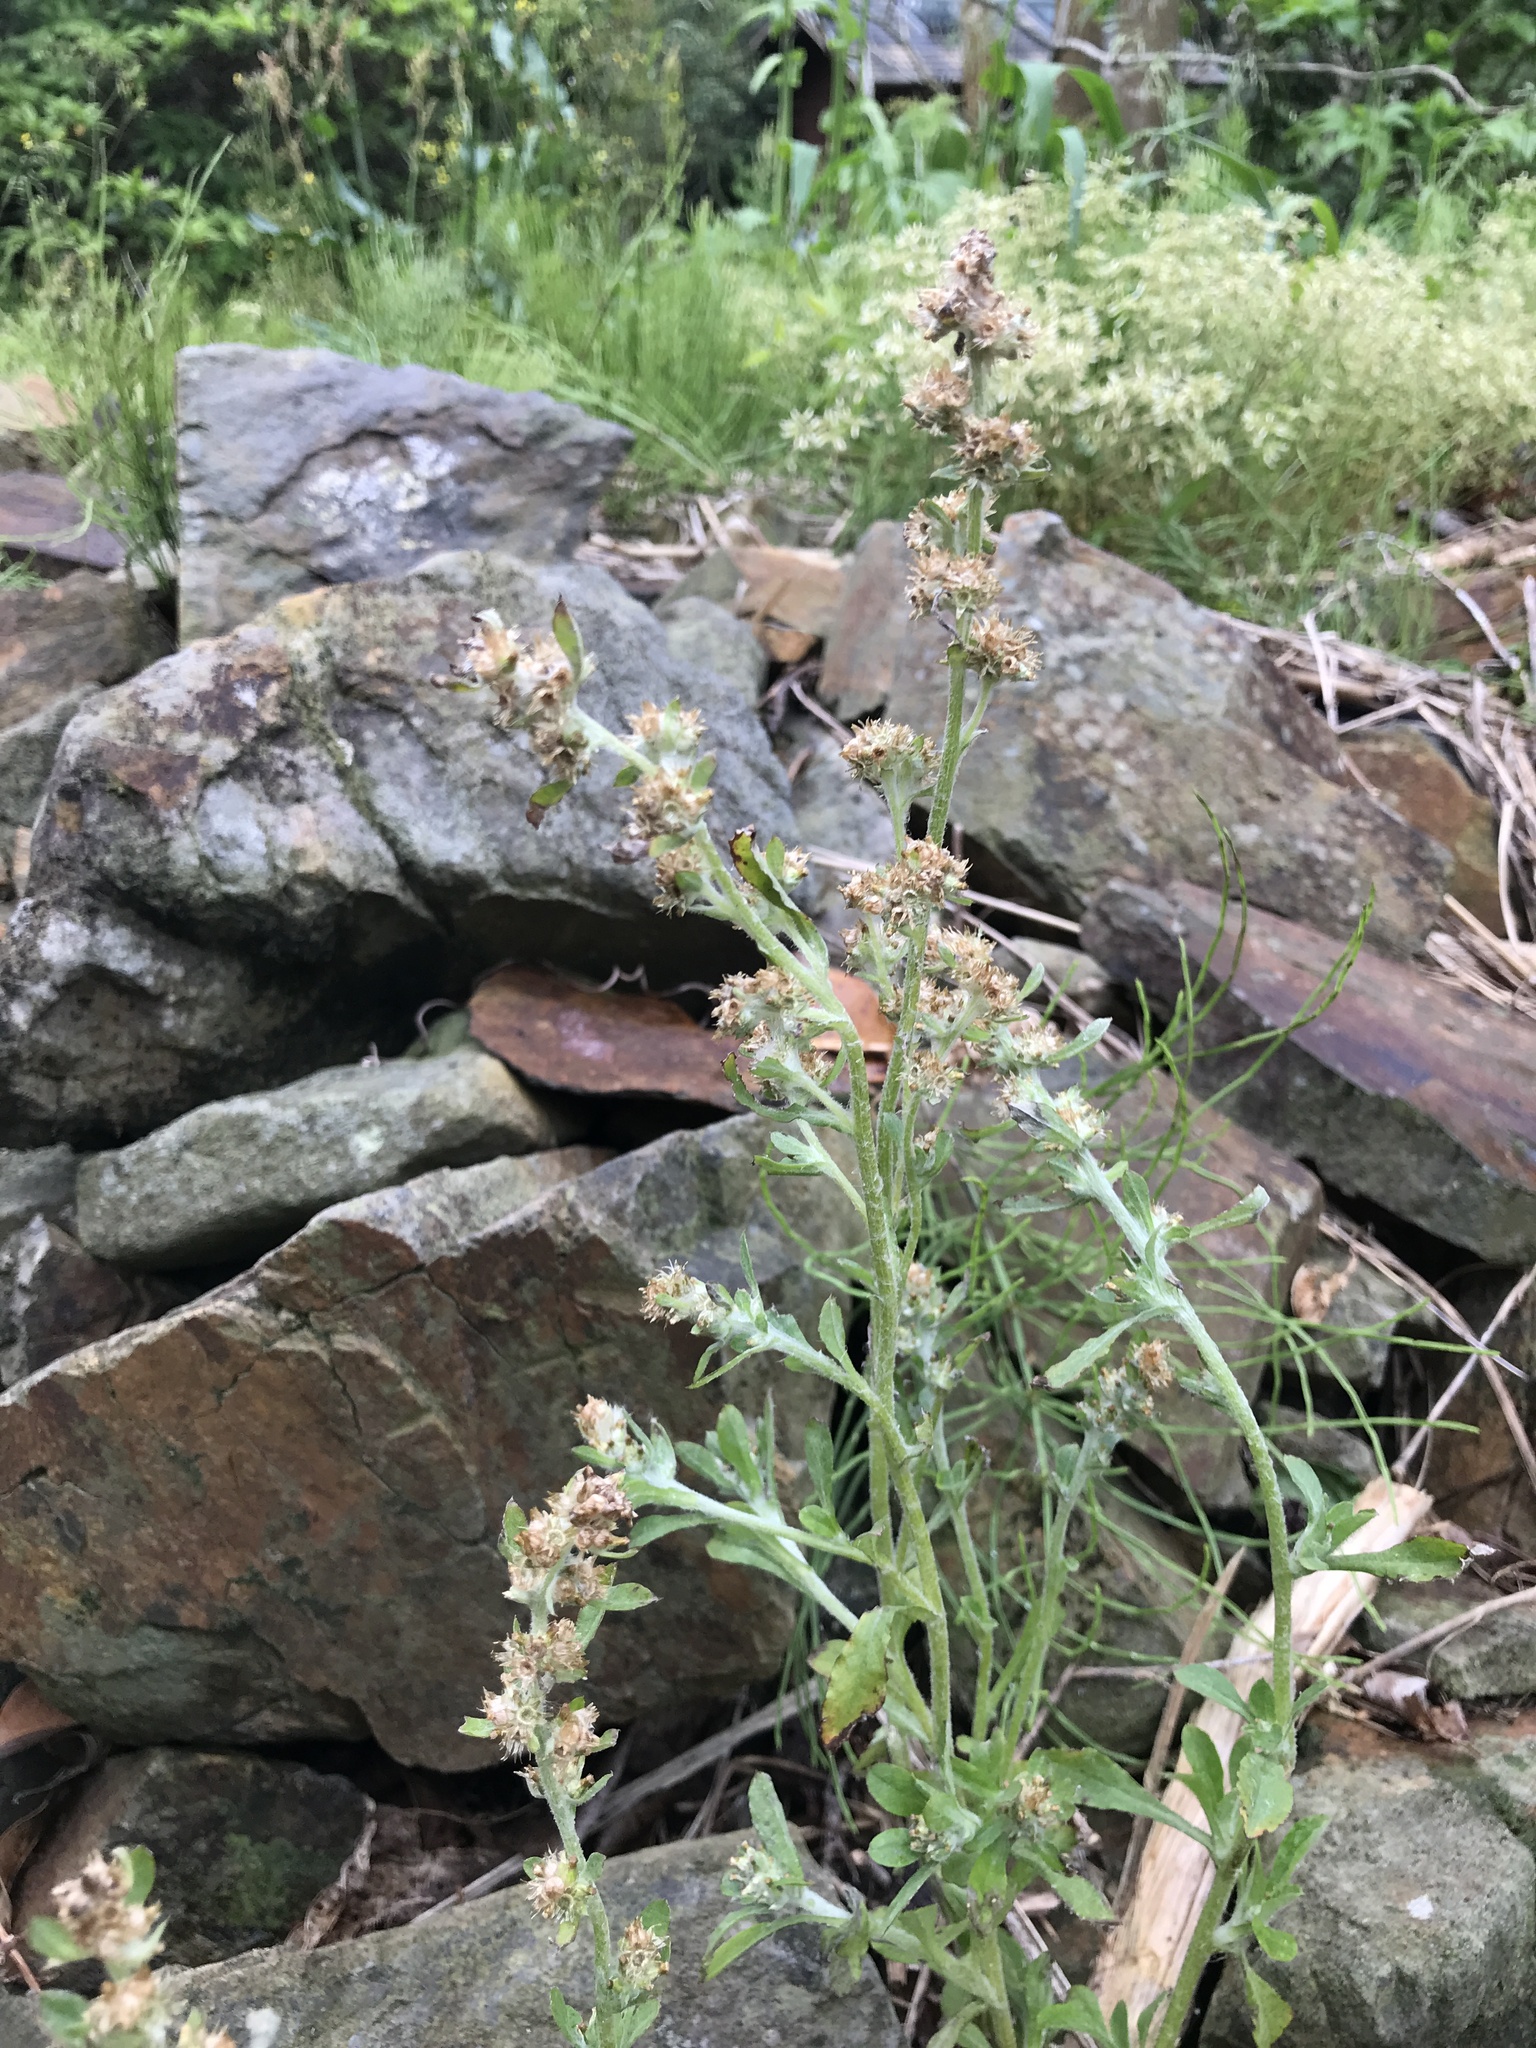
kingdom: Plantae
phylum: Tracheophyta
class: Magnoliopsida
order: Asterales
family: Asteraceae
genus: Gamochaeta
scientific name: Gamochaeta pensylvanica
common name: Pennsylvania everlasting
